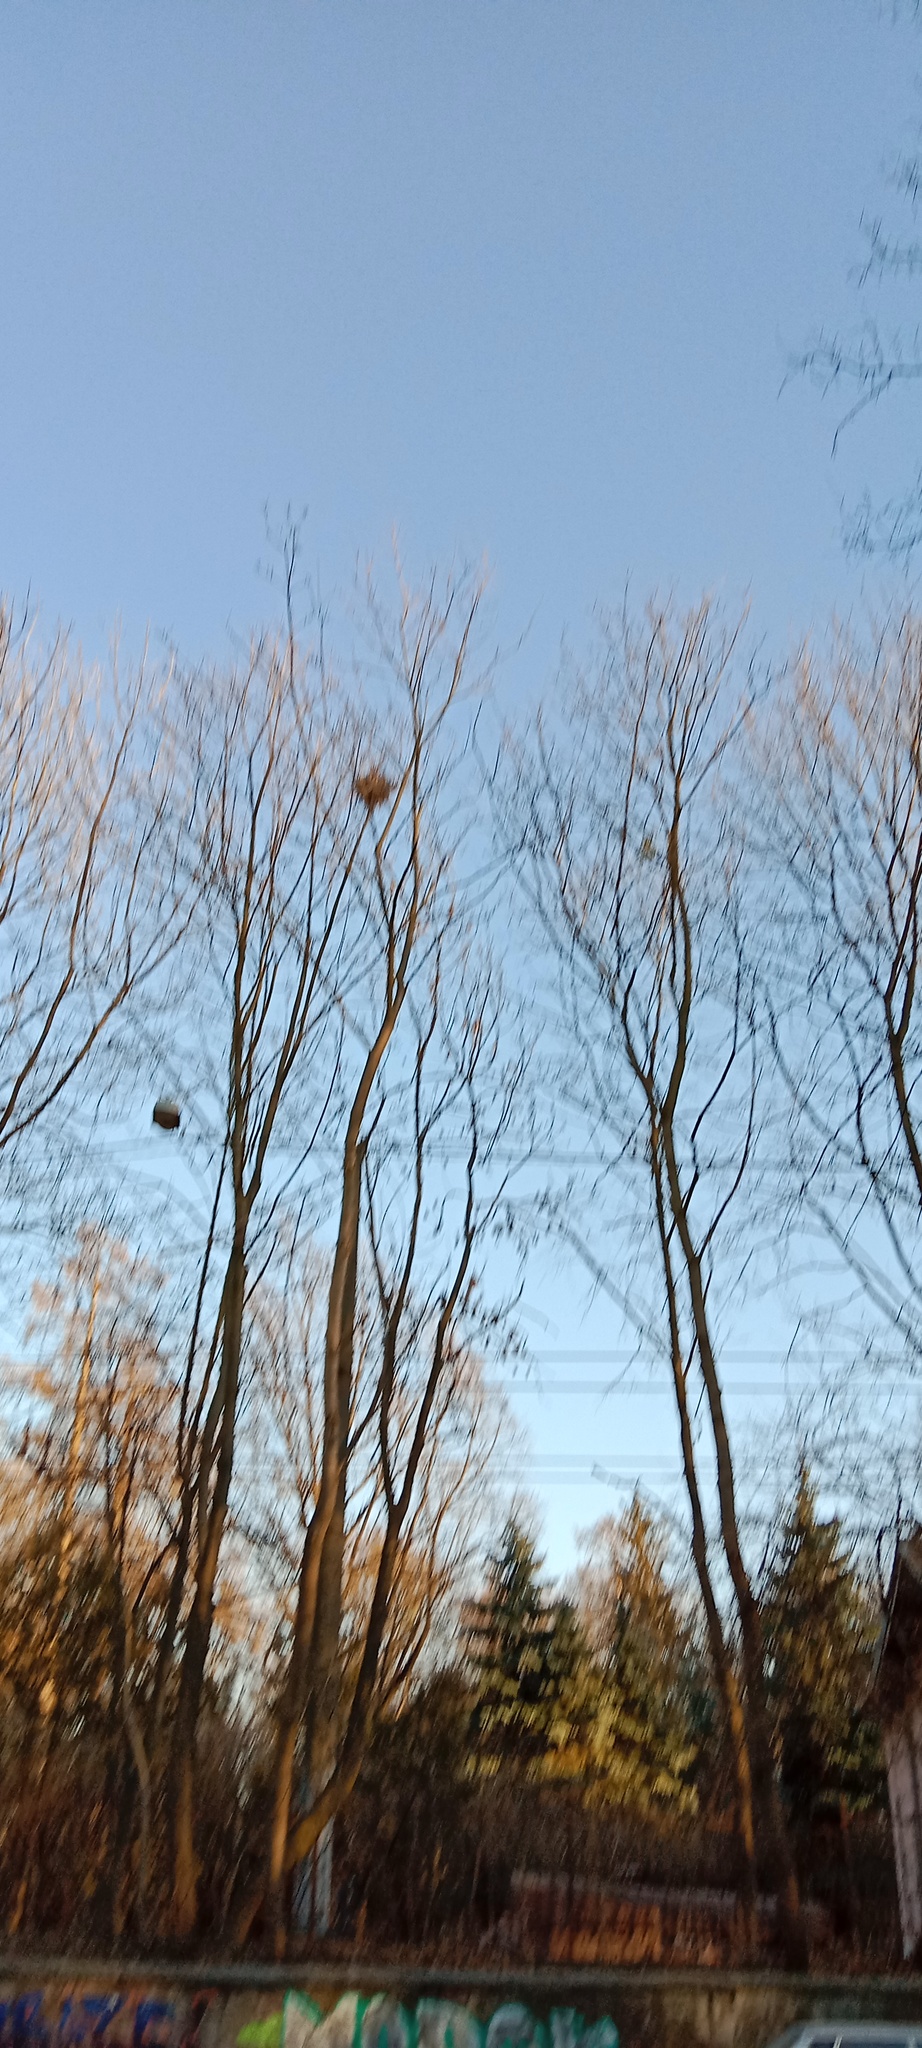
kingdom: Plantae
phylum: Tracheophyta
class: Magnoliopsida
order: Santalales
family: Viscaceae
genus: Viscum
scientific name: Viscum album
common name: Mistletoe
